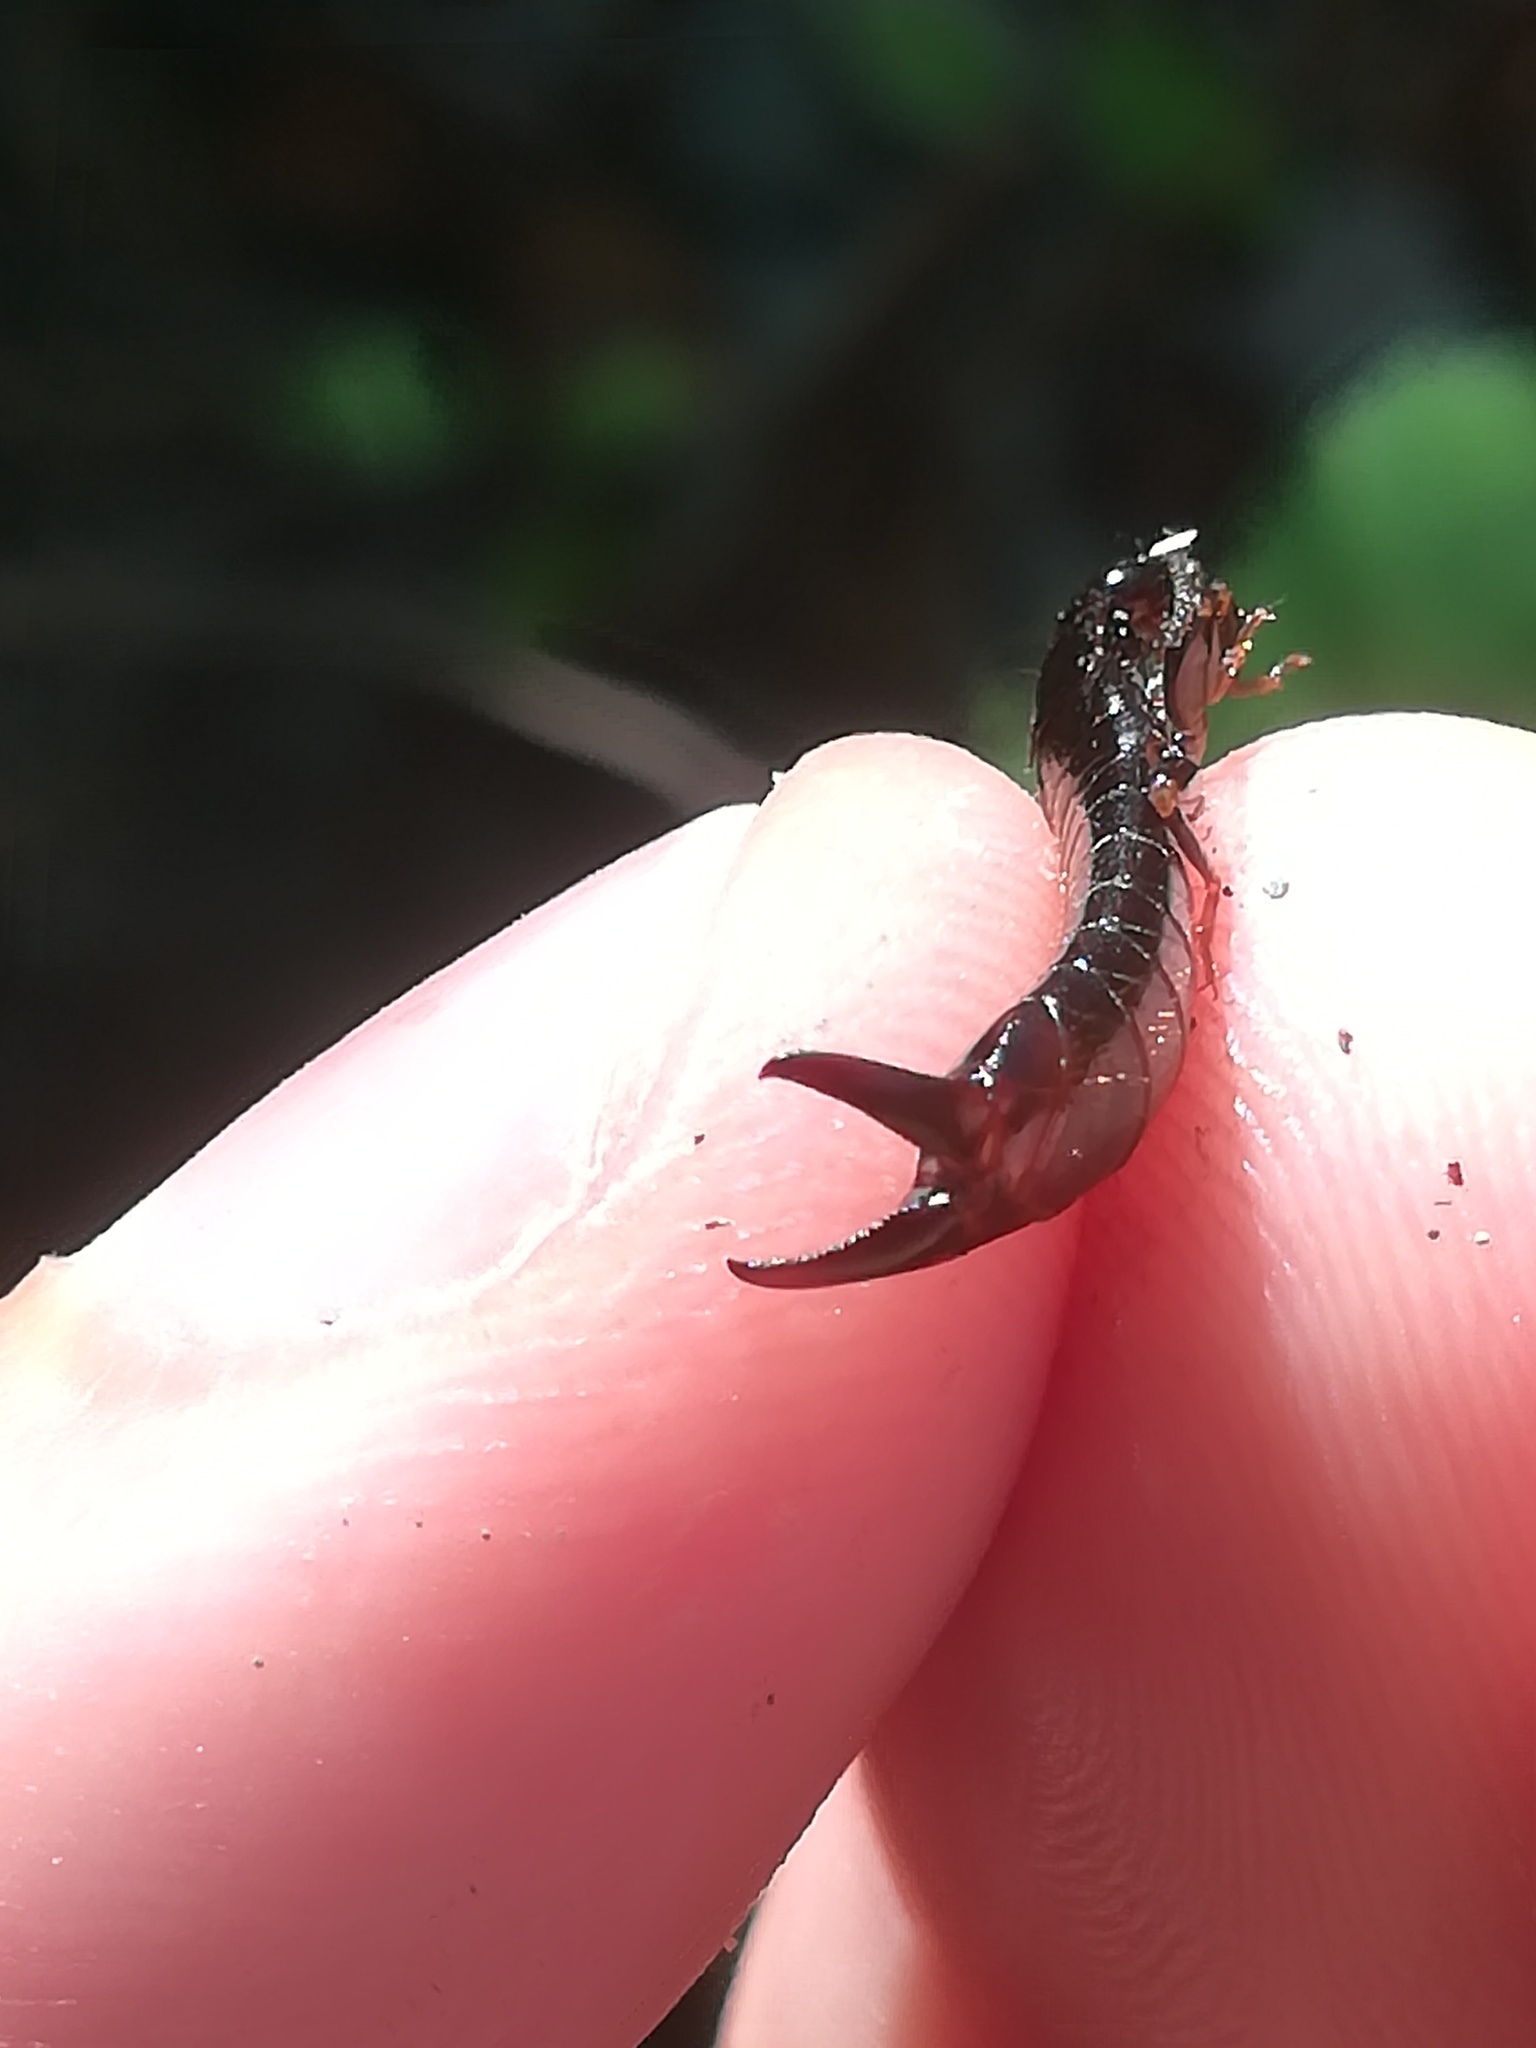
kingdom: Animalia
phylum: Arthropoda
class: Insecta
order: Dermaptera
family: Anisolabididae
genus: Euborellia
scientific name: Euborellia moesta
